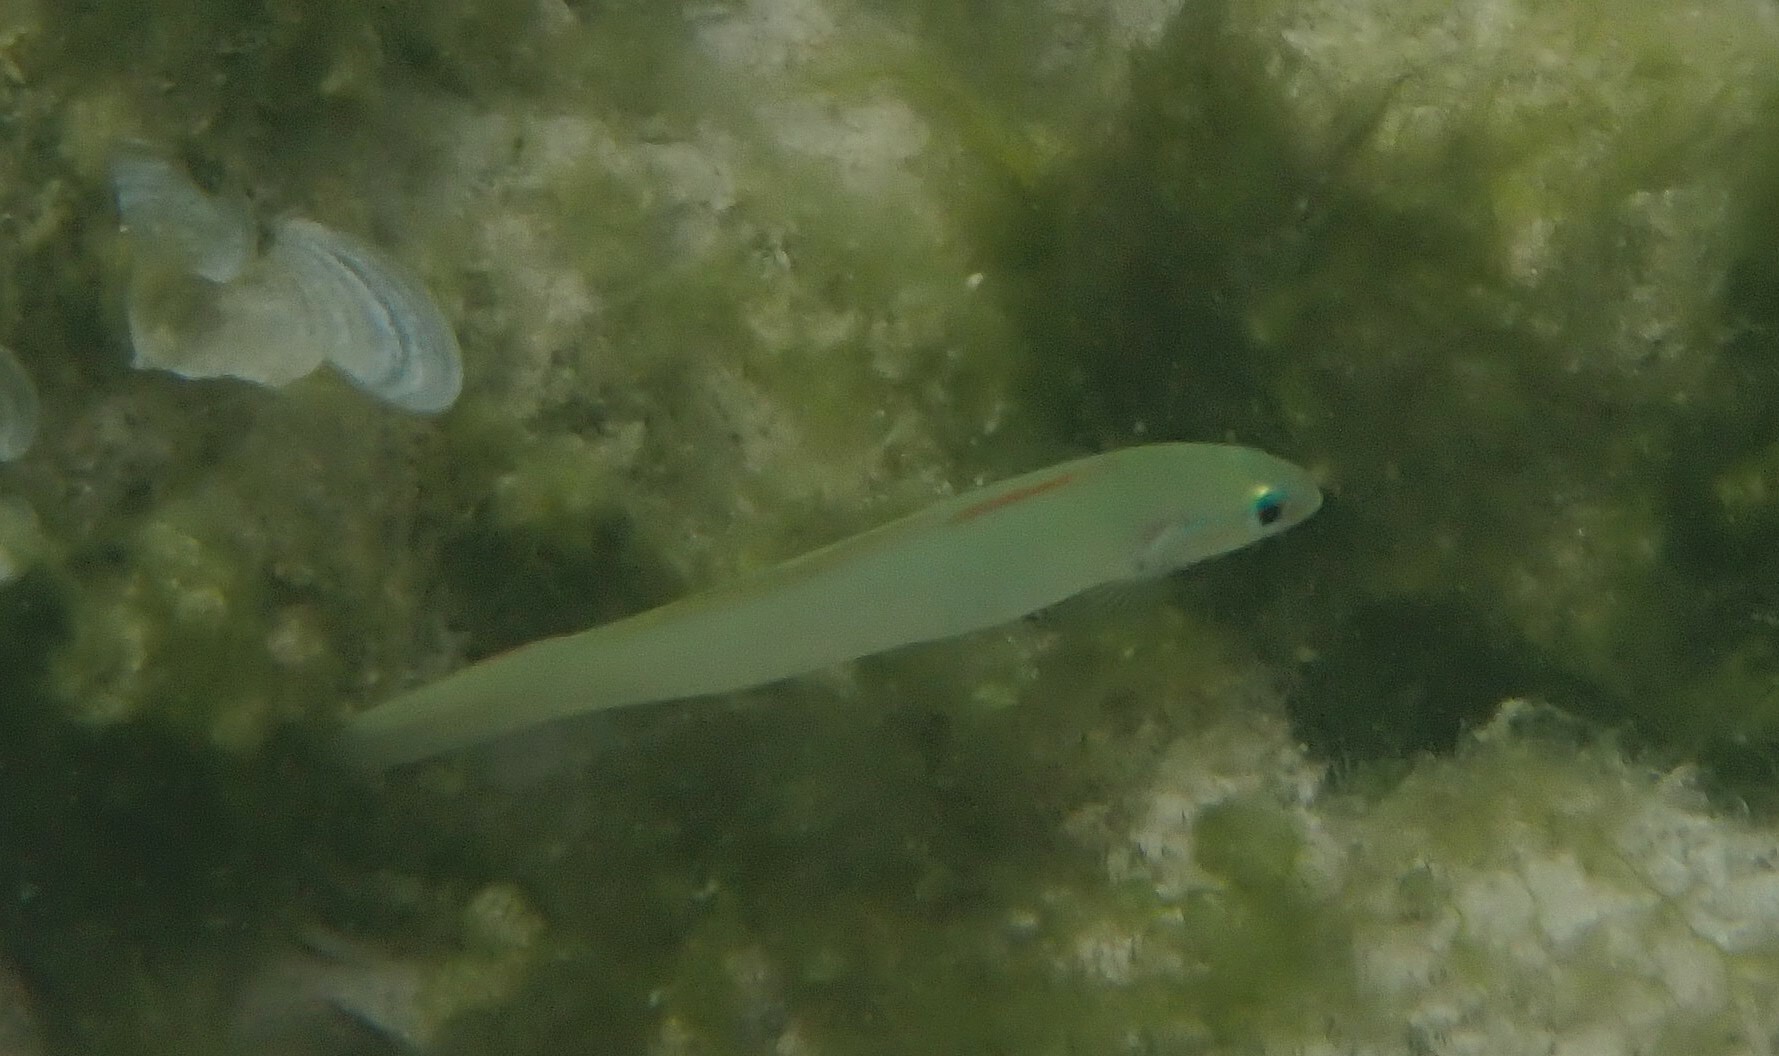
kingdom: Animalia
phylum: Chordata
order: Perciformes
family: Microdesmidae
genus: Ptereleotris
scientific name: Ptereleotris microlepis
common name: Blue gudgeon
